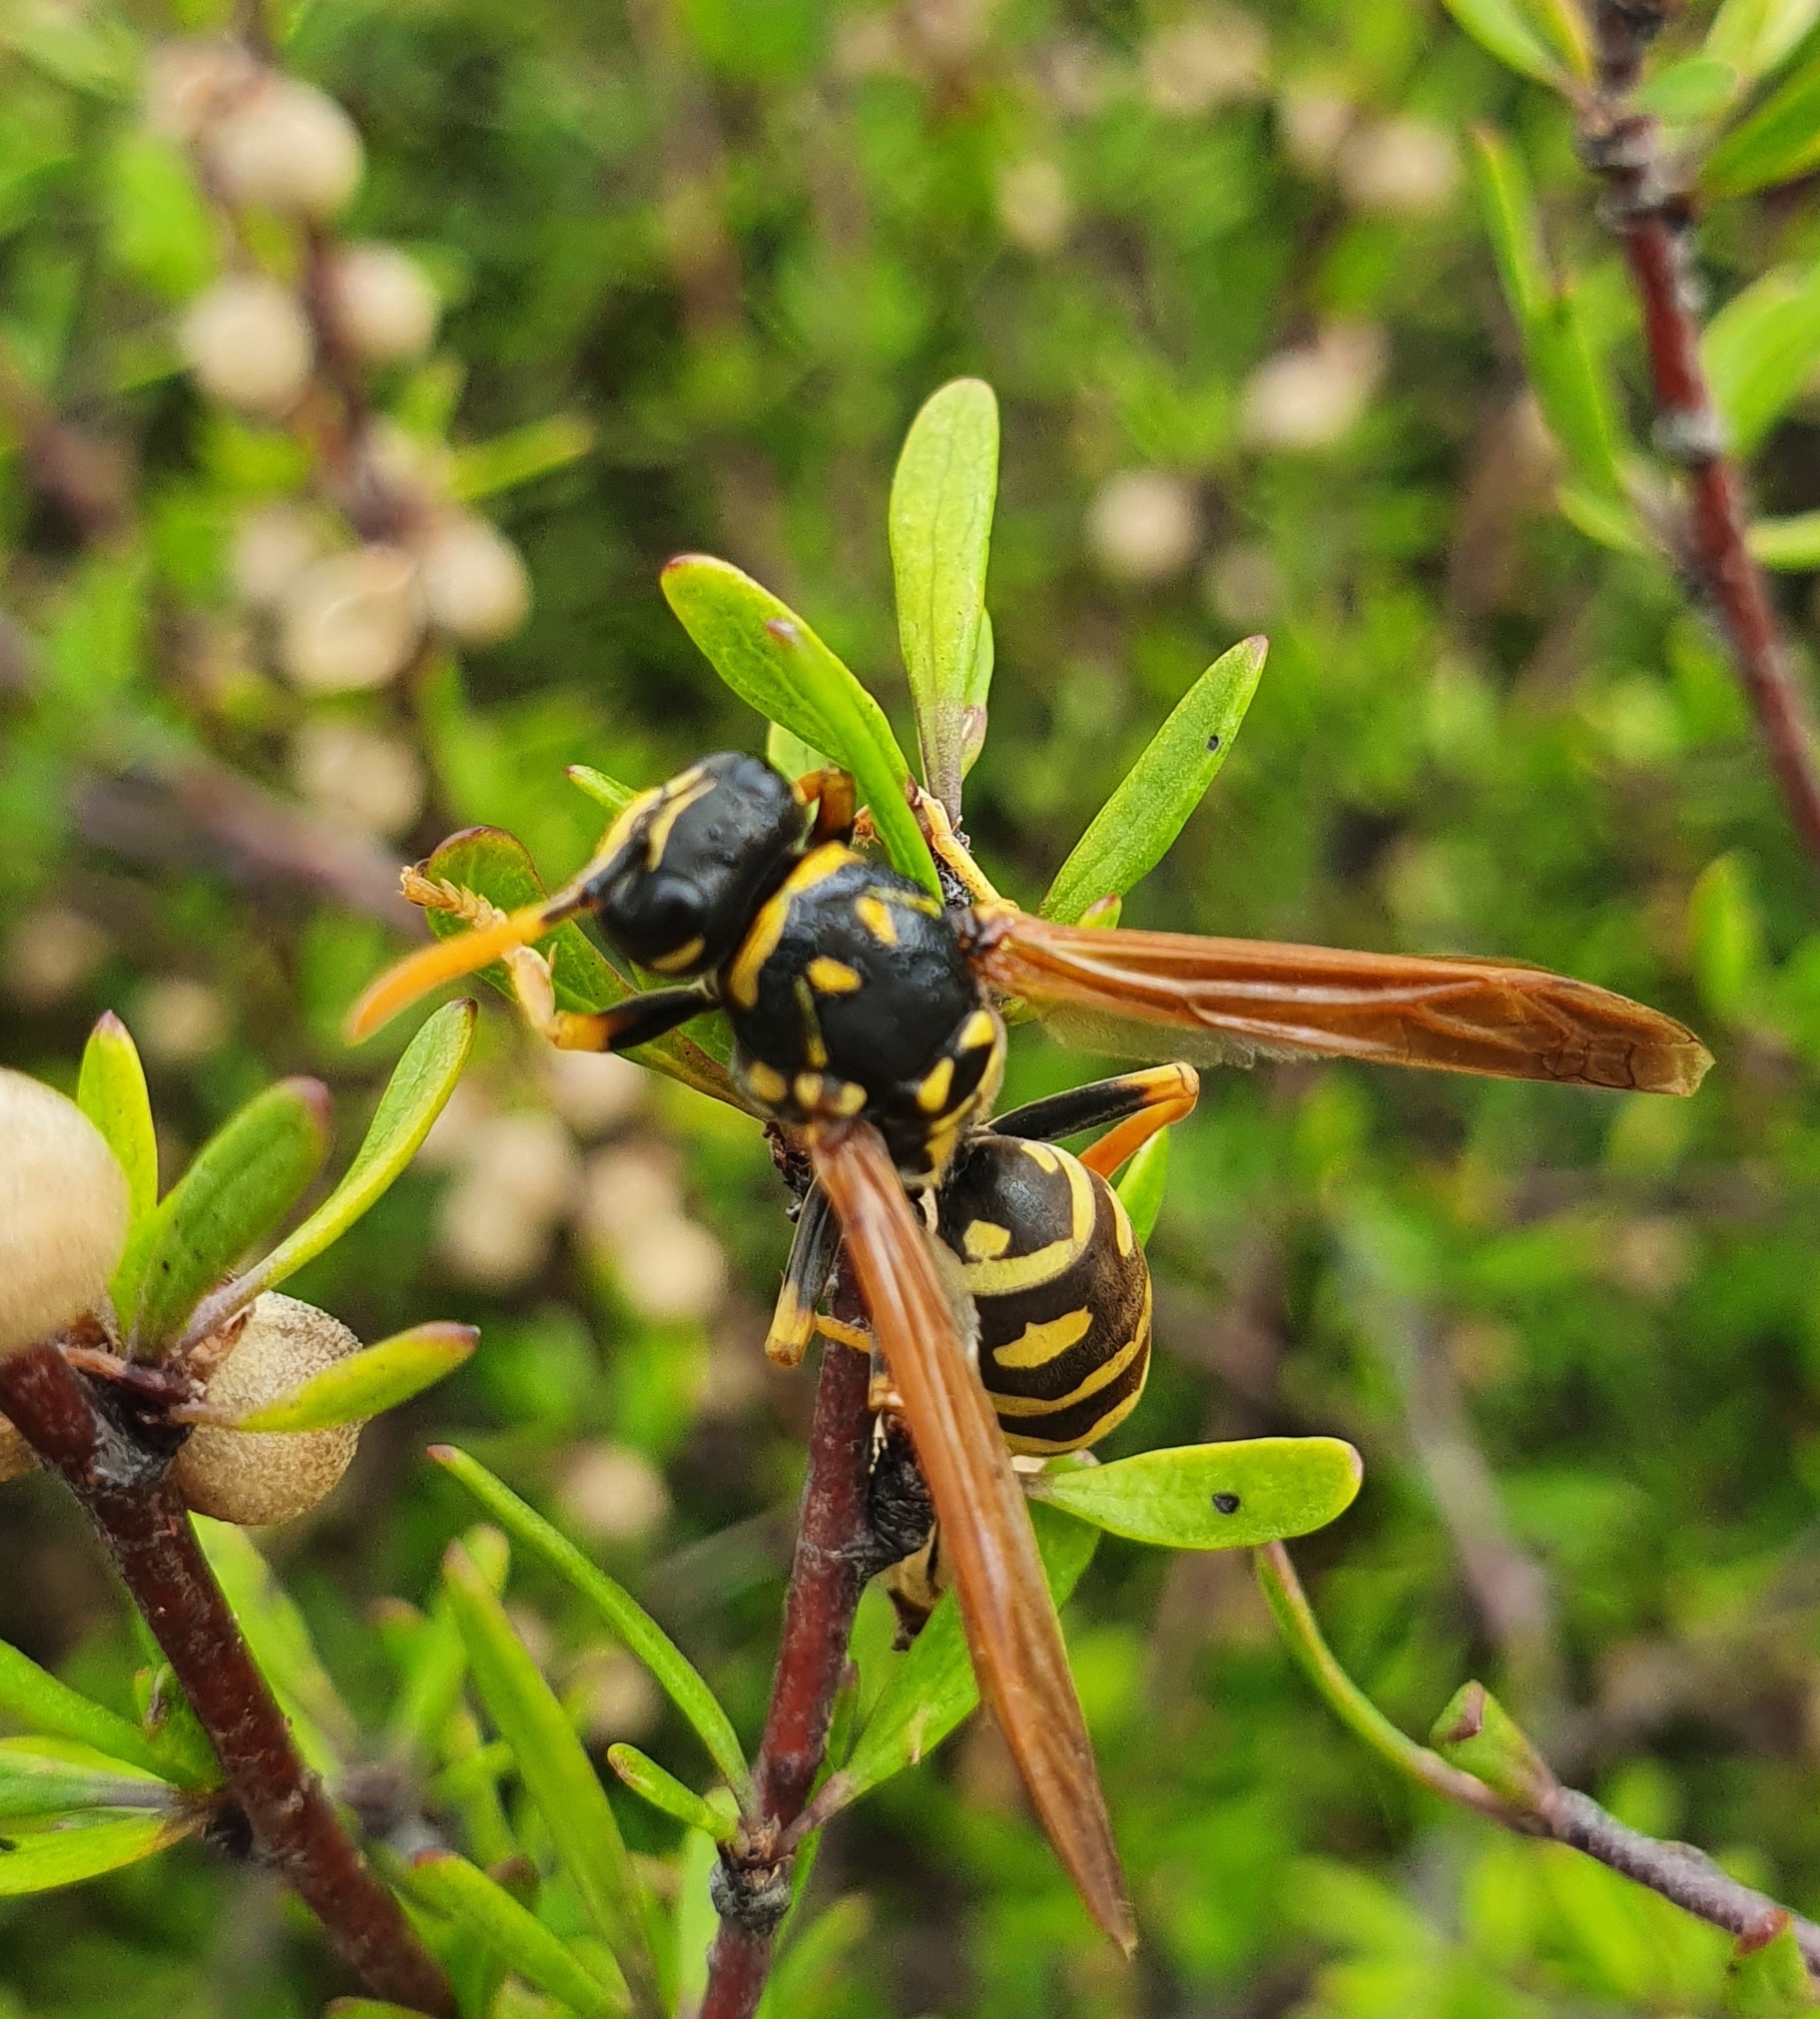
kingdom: Animalia
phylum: Arthropoda
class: Insecta
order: Hymenoptera
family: Eumenidae
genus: Polistes
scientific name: Polistes dominula
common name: Paper wasp
